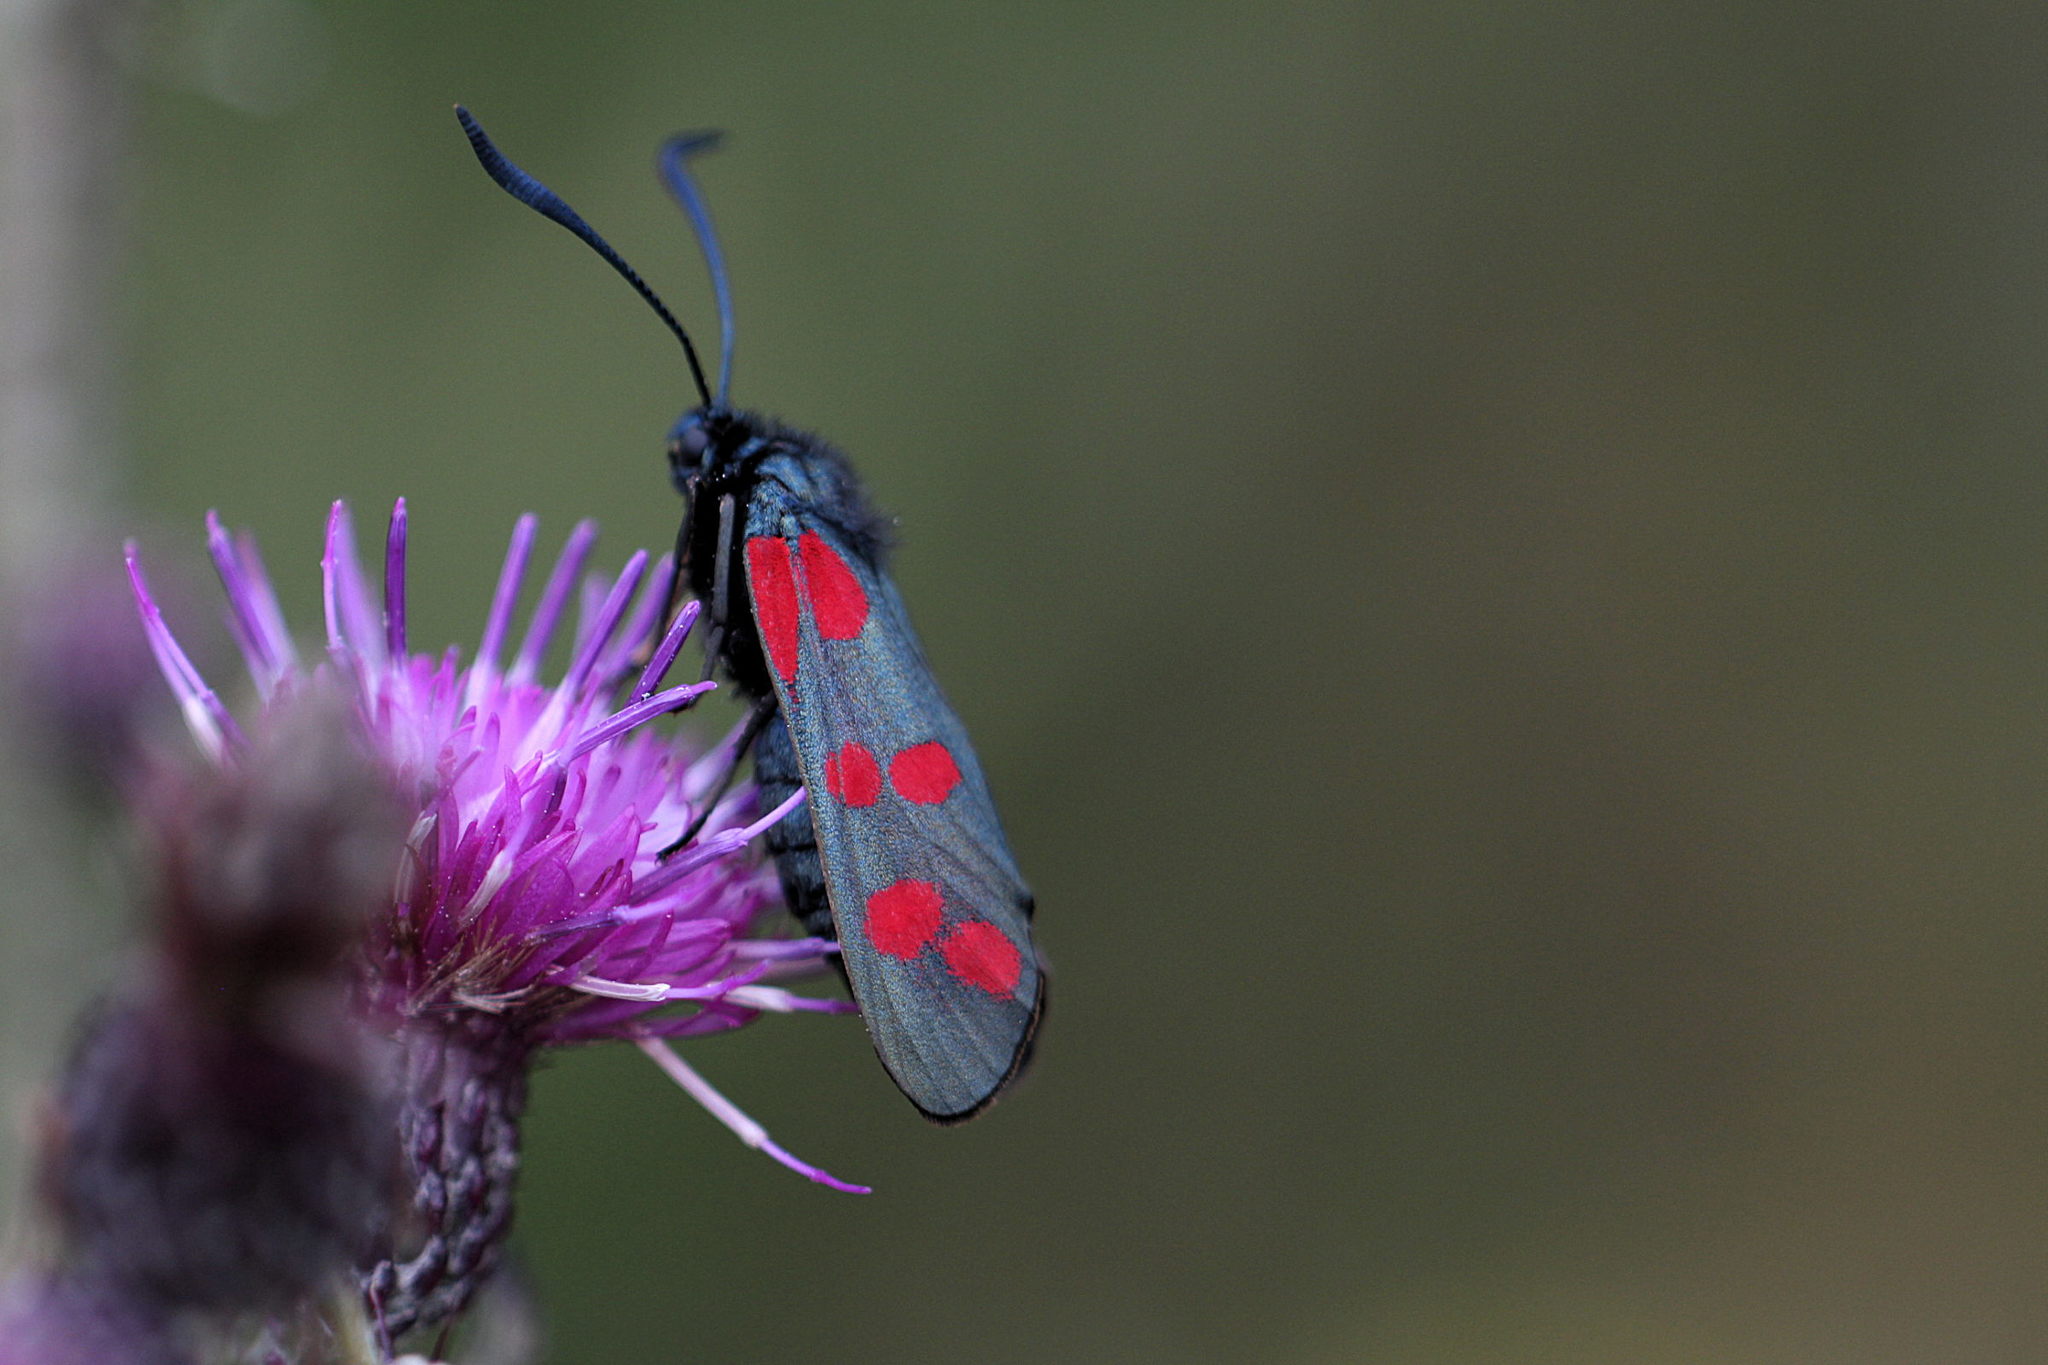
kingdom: Animalia
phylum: Arthropoda
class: Insecta
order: Lepidoptera
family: Zygaenidae
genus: Zygaena
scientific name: Zygaena filipendulae
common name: Six-spot burnet
